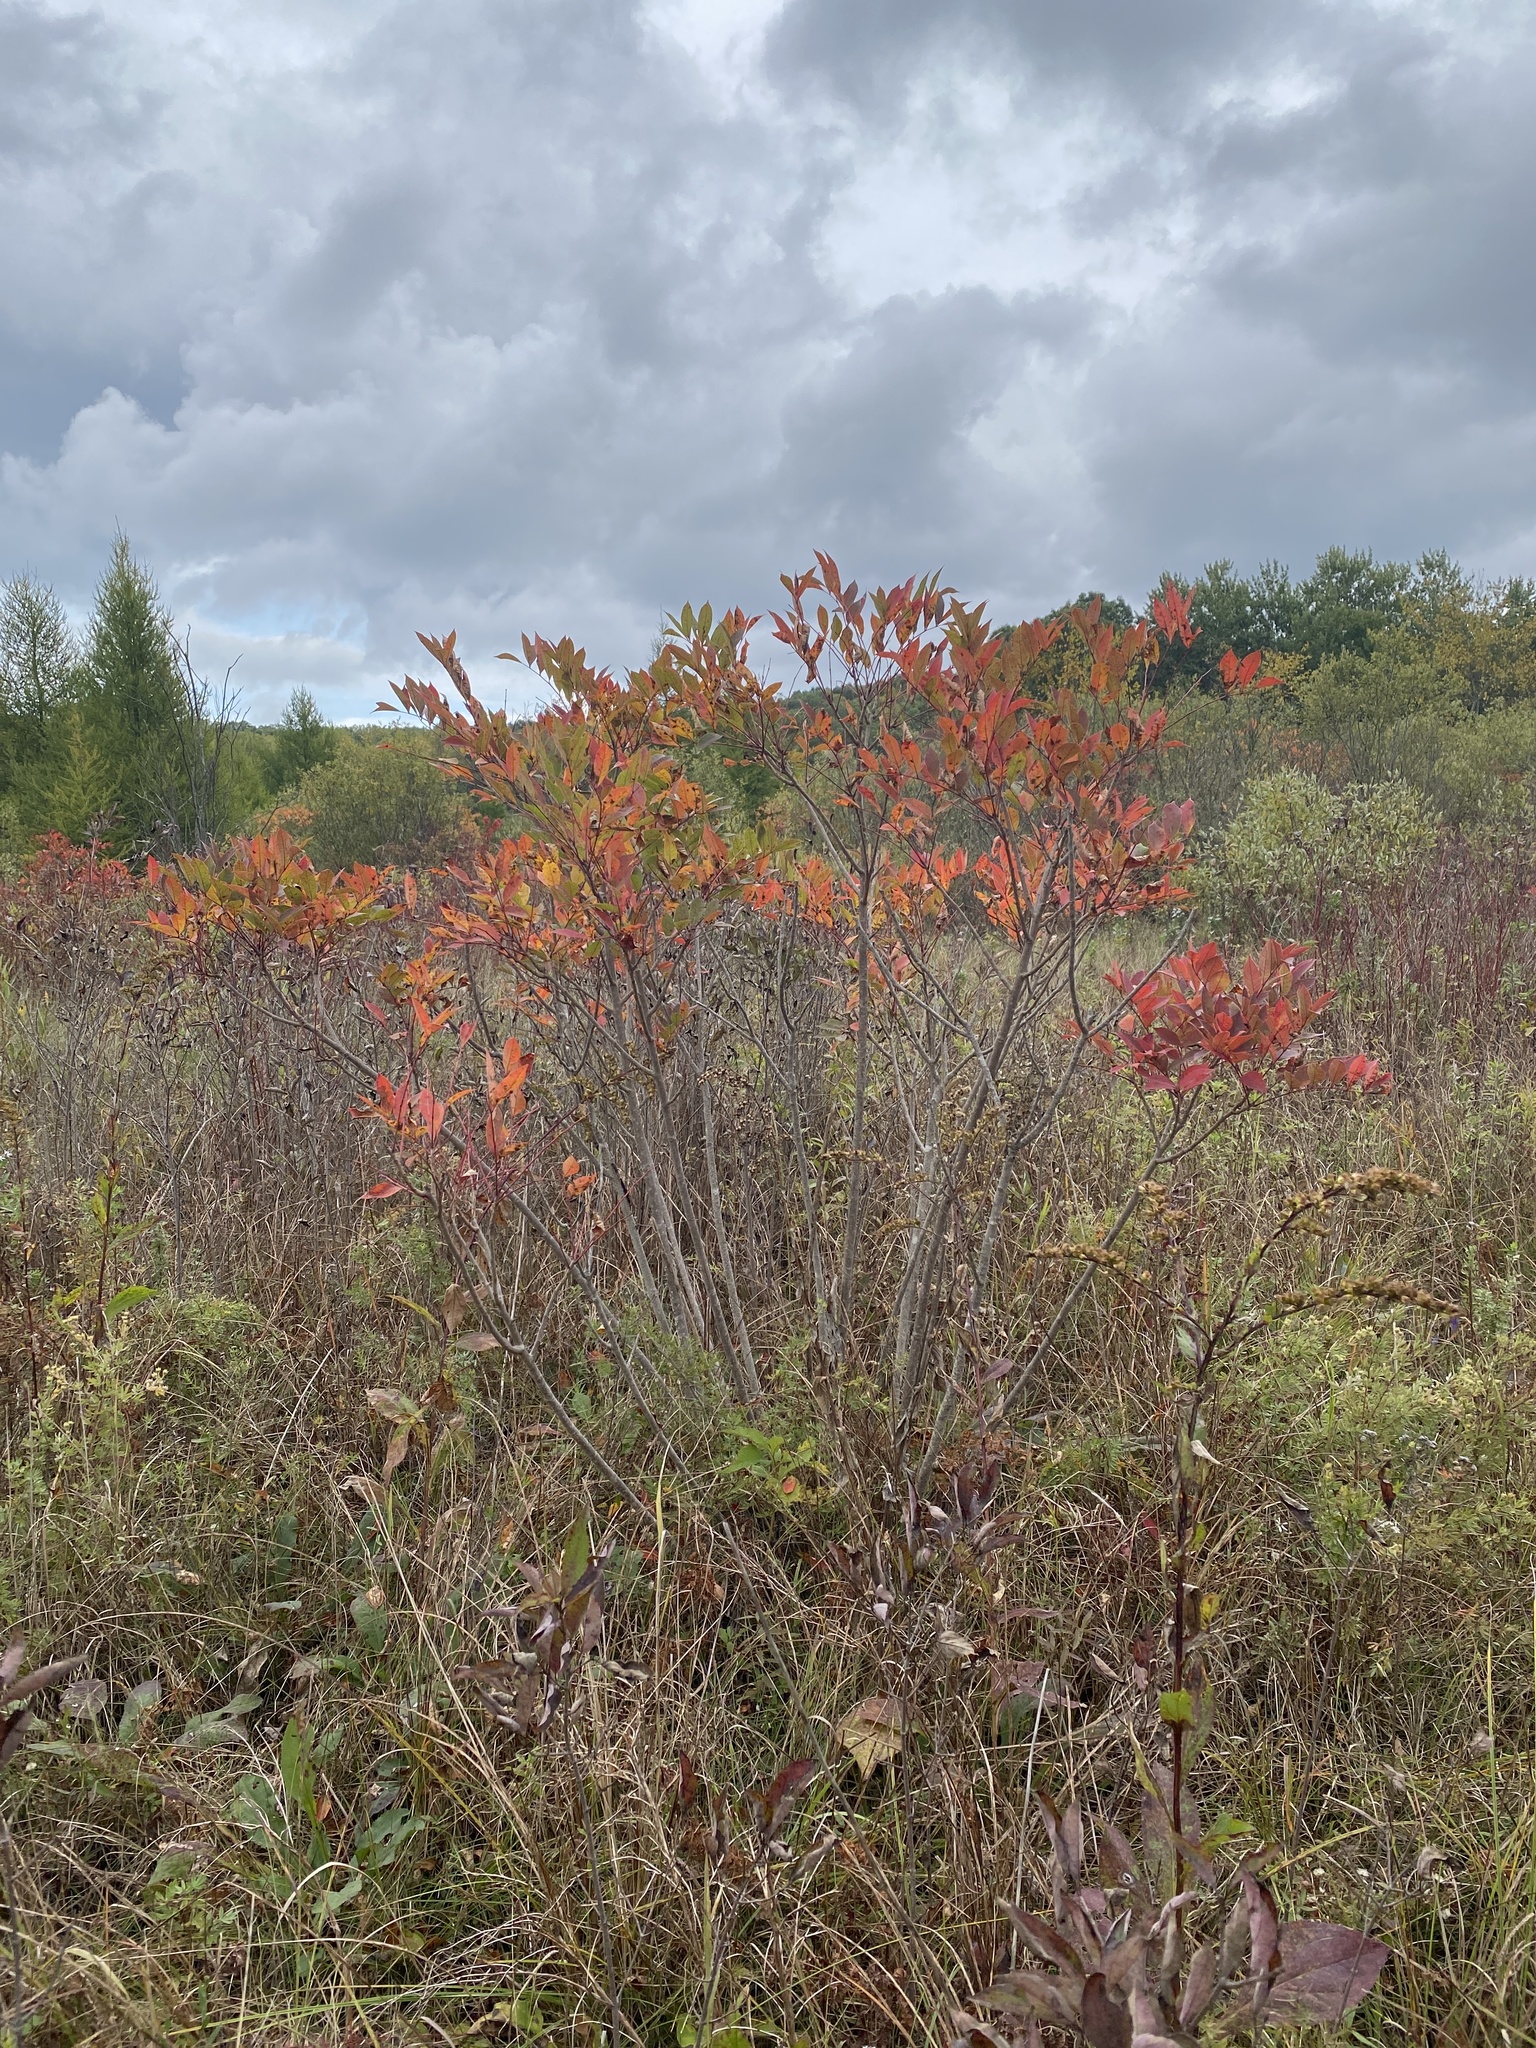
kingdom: Plantae
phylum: Tracheophyta
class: Magnoliopsida
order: Sapindales
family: Anacardiaceae
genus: Toxicodendron
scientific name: Toxicodendron vernix
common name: Poison sumac
